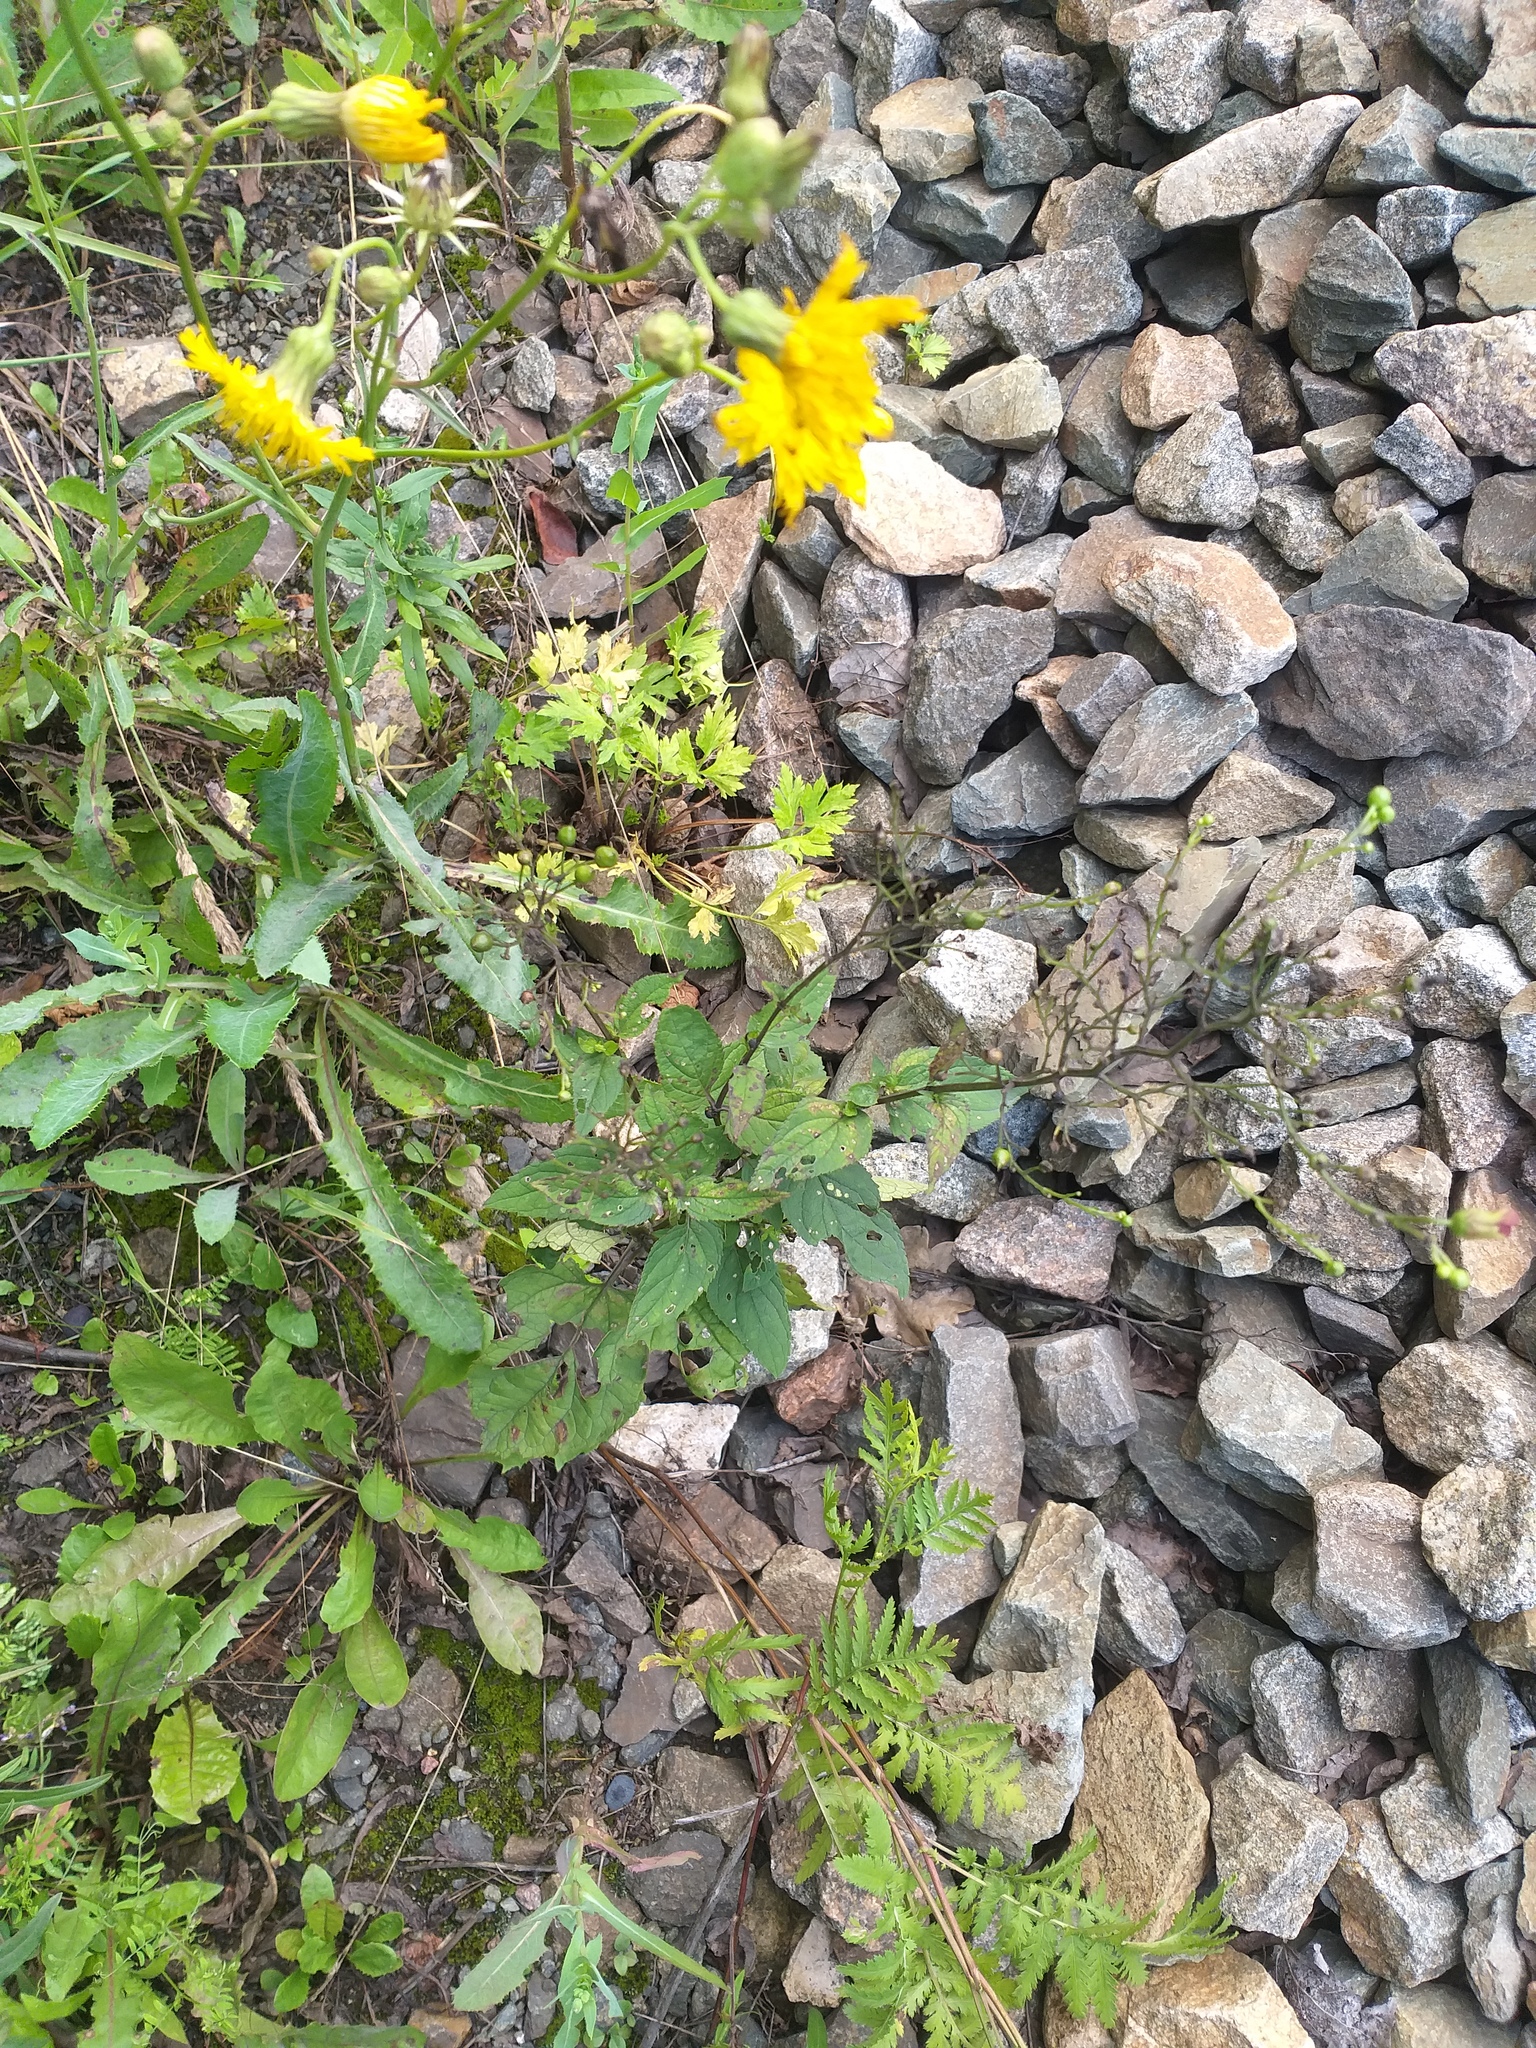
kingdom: Plantae
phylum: Tracheophyta
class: Magnoliopsida
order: Lamiales
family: Scrophulariaceae
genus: Scrophularia
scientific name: Scrophularia nodosa
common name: Common figwort
